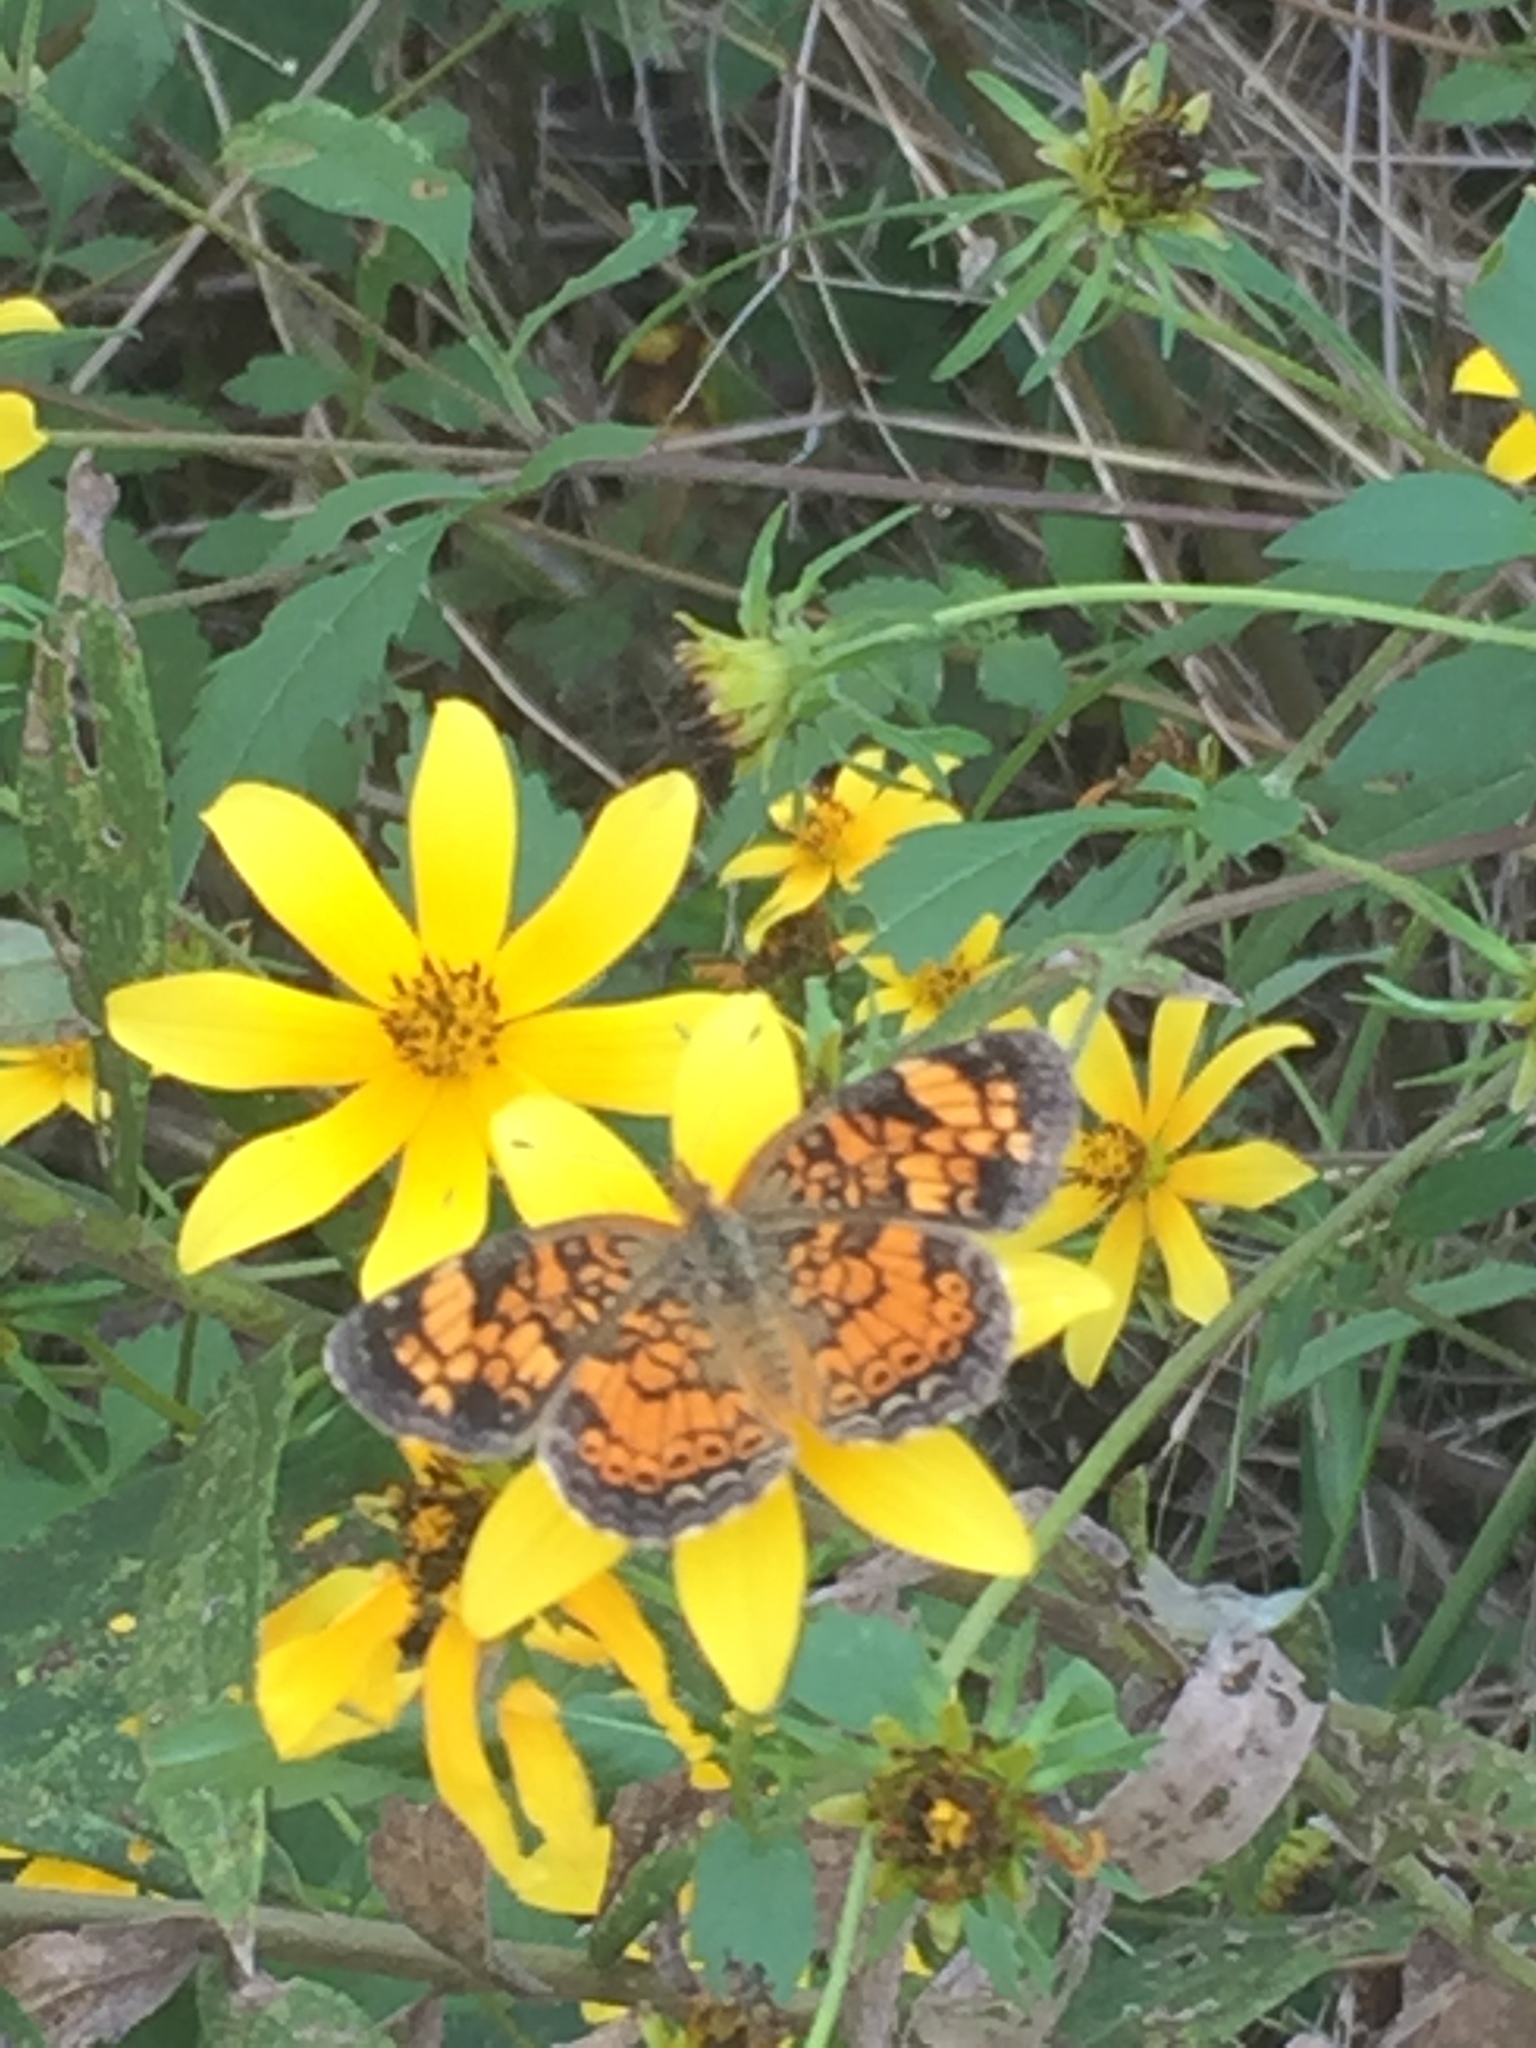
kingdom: Animalia
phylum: Arthropoda
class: Insecta
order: Lepidoptera
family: Nymphalidae
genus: Phyciodes
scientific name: Phyciodes tharos
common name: Pearl crescent
